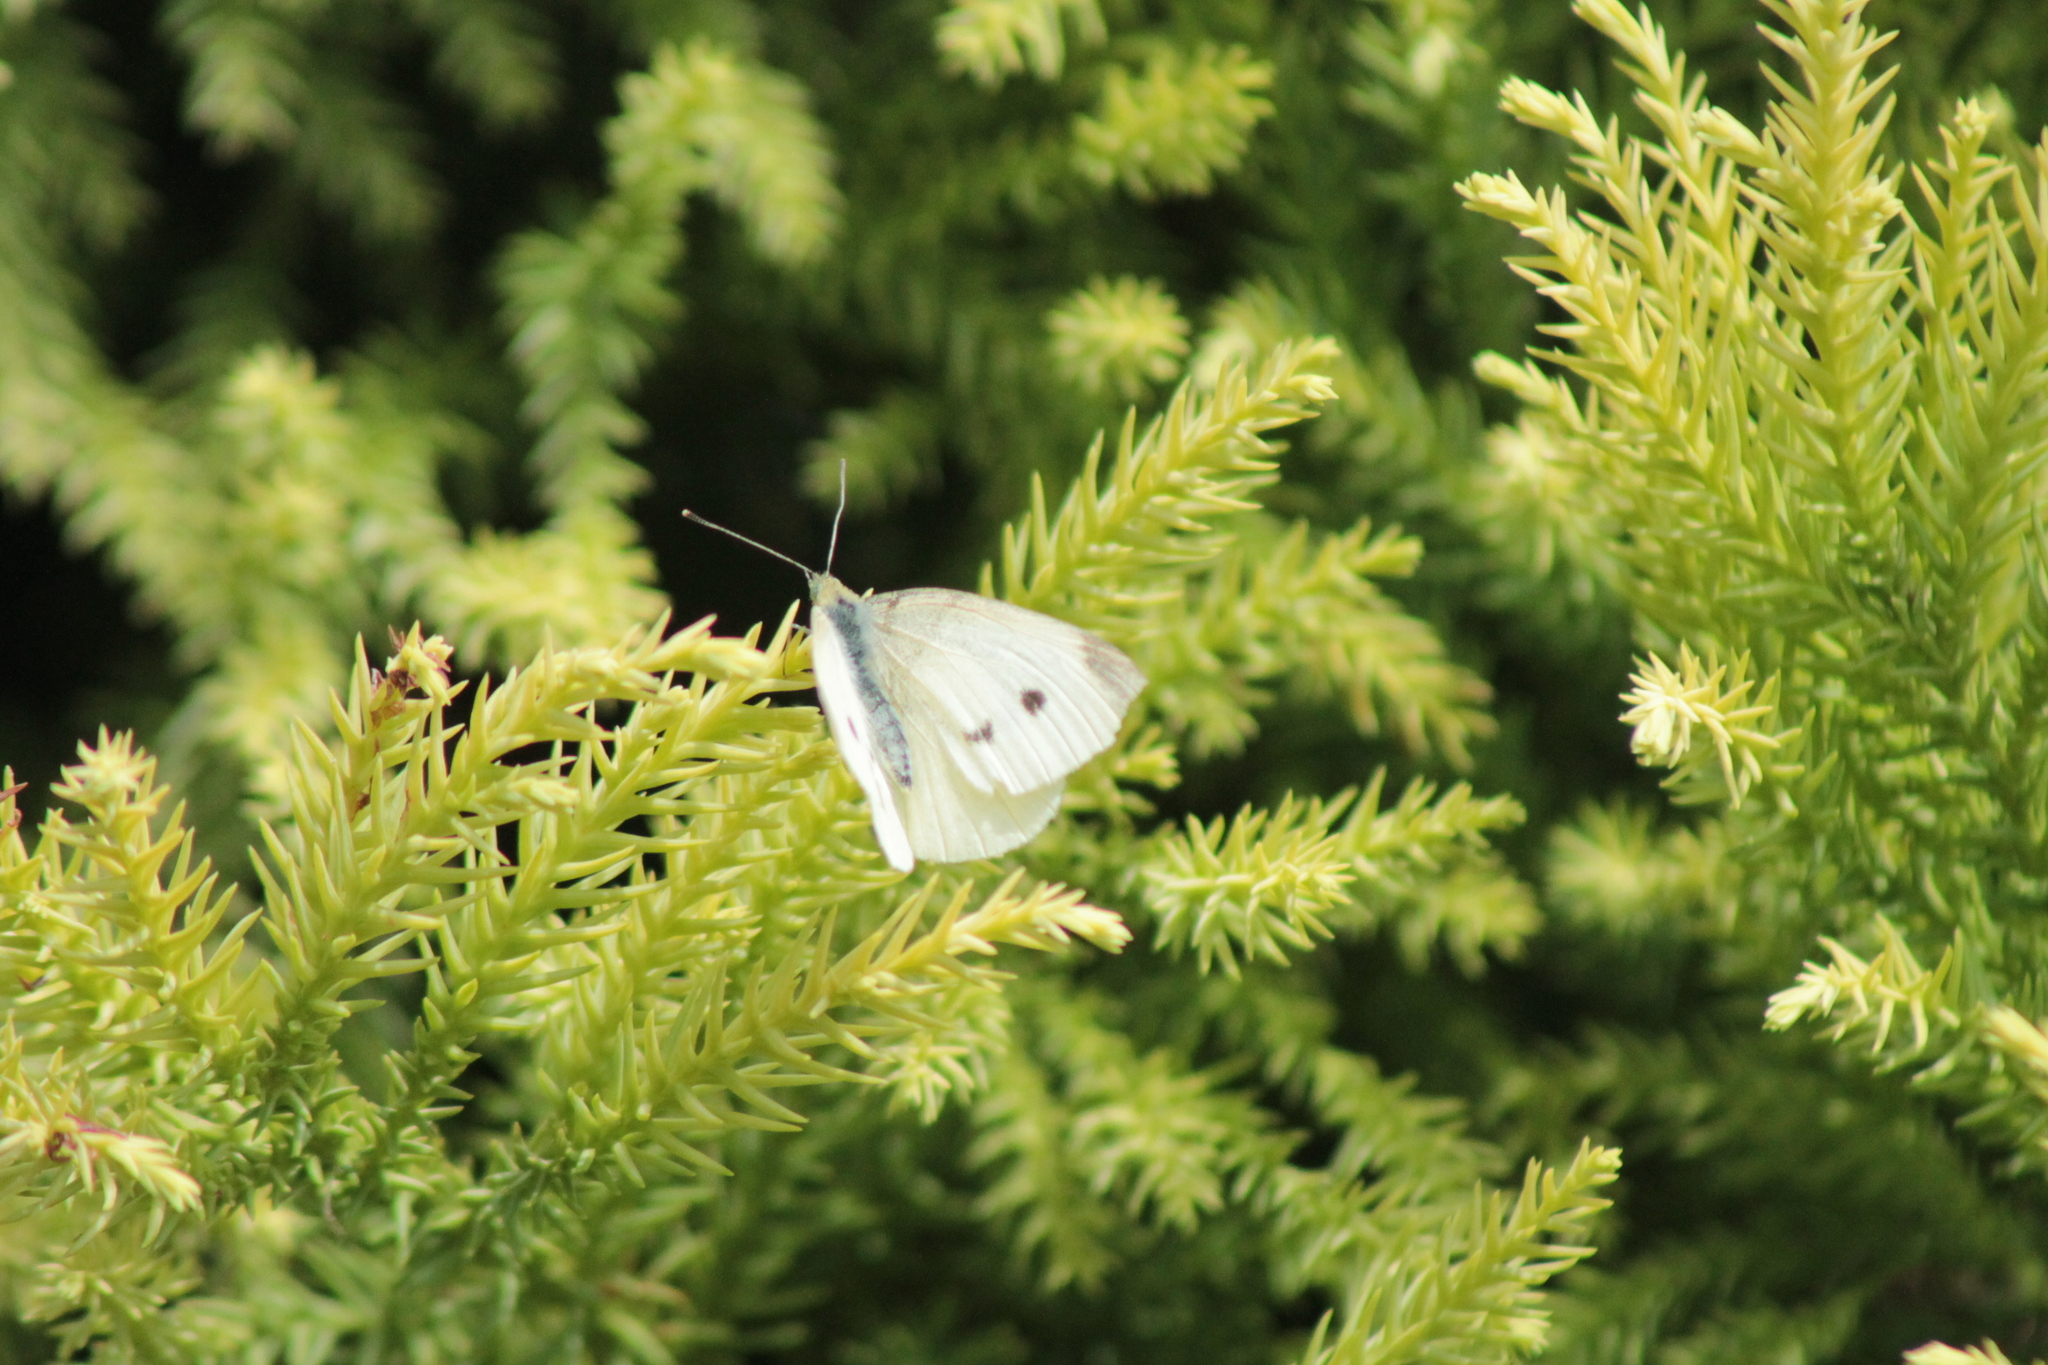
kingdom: Animalia
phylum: Arthropoda
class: Insecta
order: Lepidoptera
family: Pieridae
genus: Pieris
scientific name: Pieris rapae
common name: Small white
